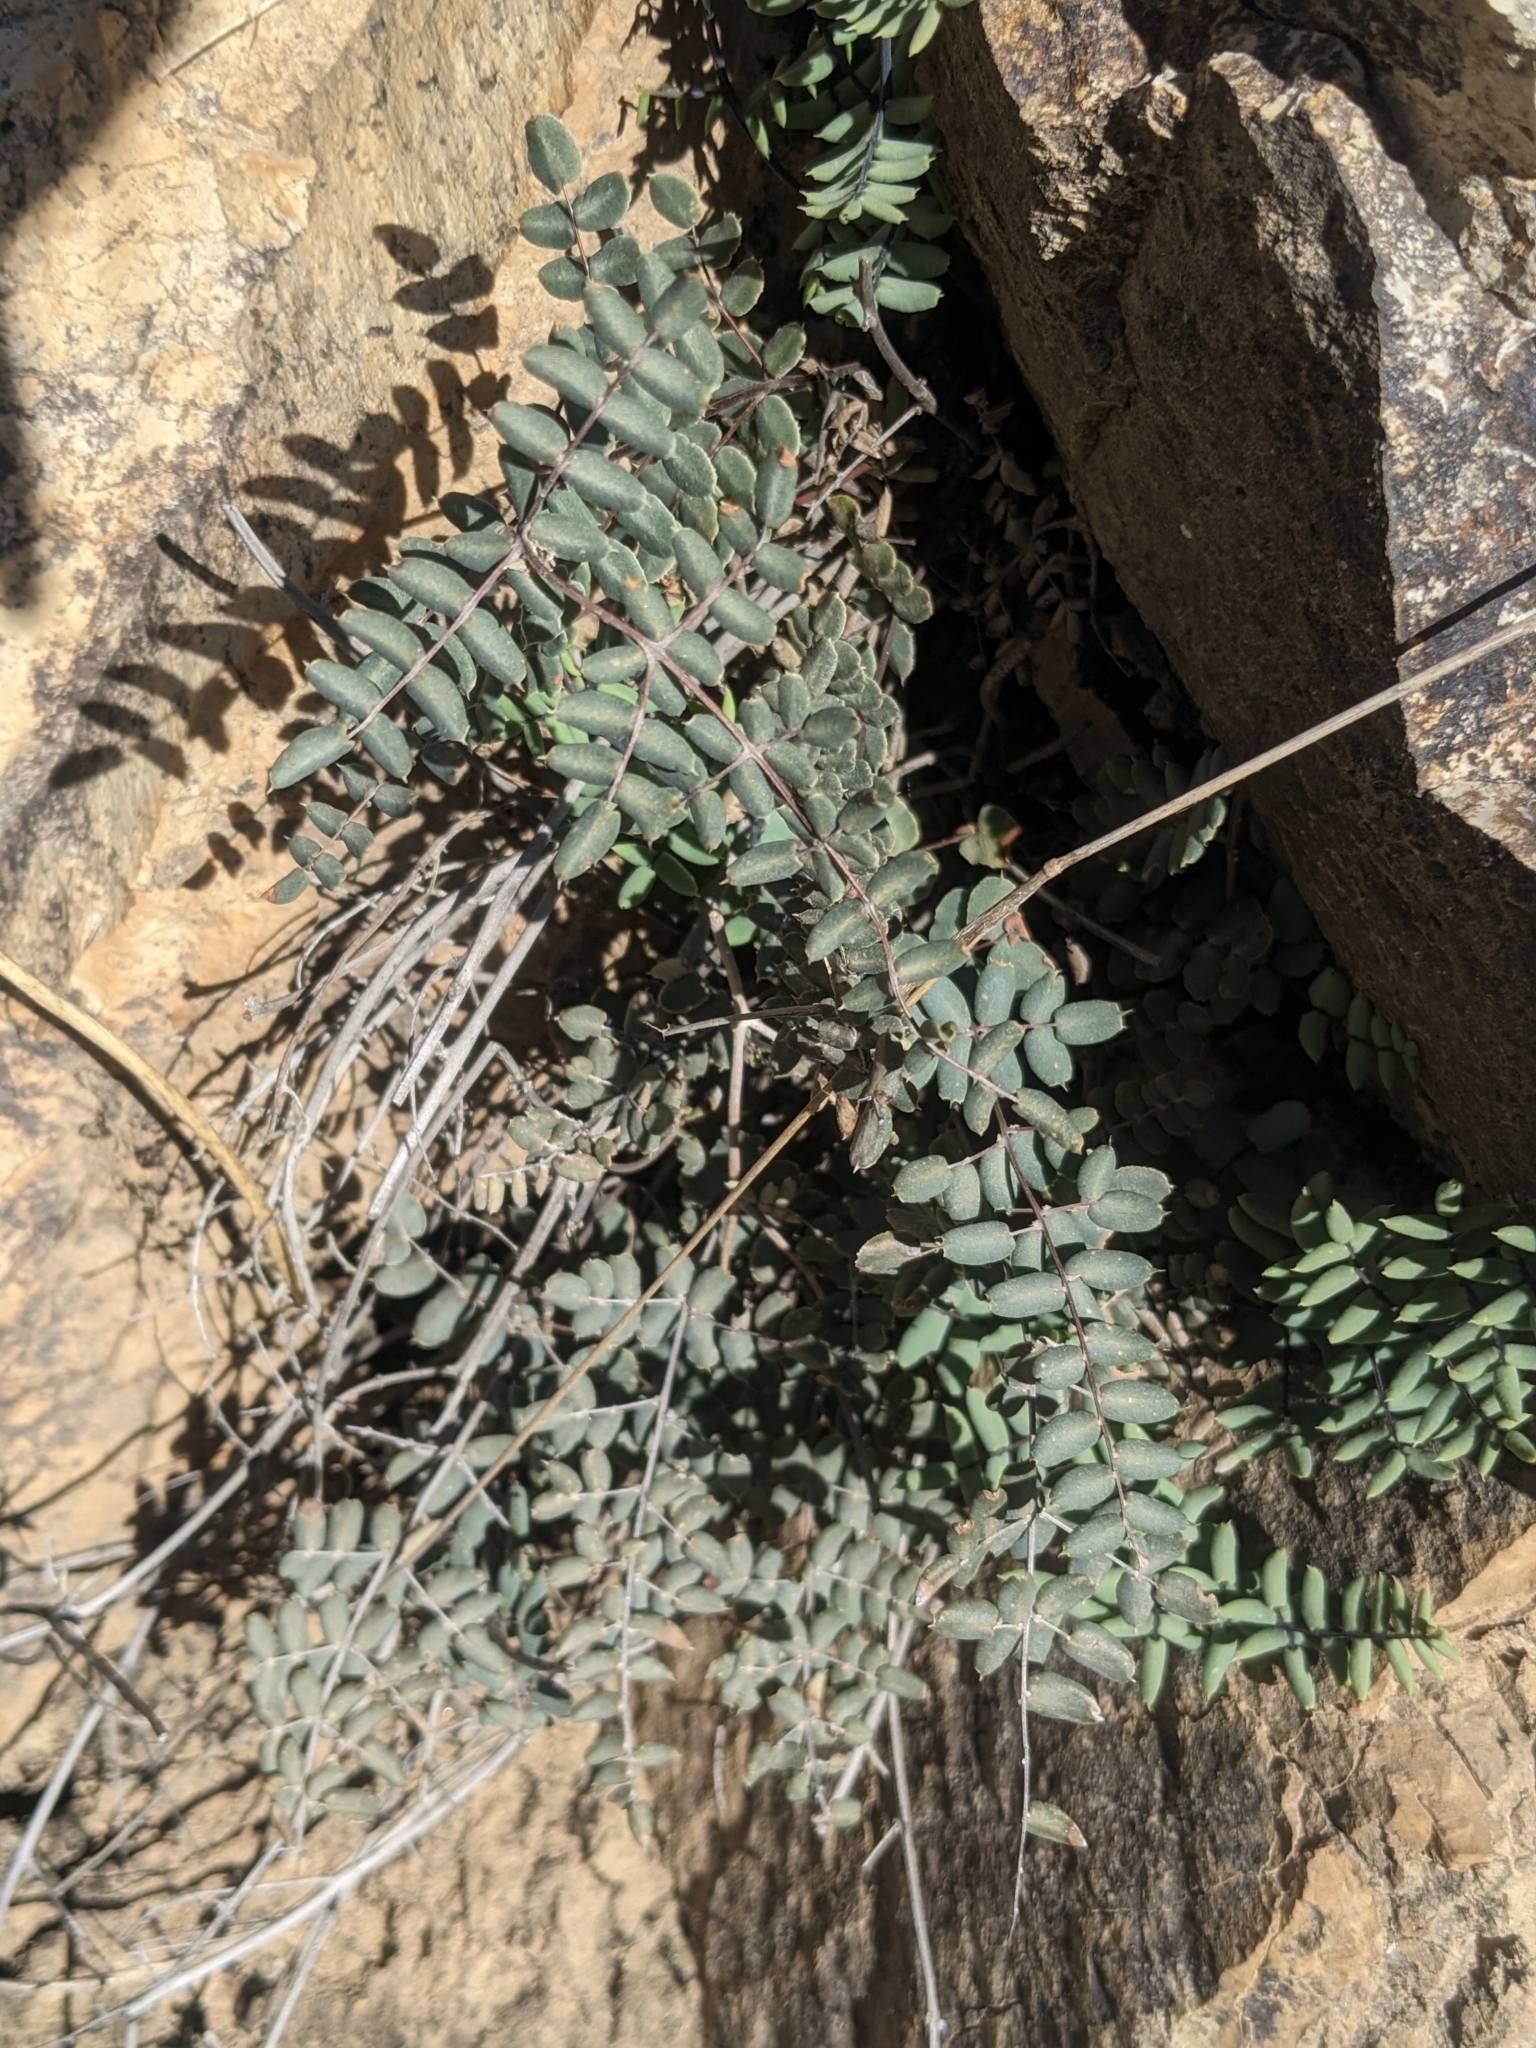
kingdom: Plantae
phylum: Tracheophyta
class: Polypodiopsida
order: Polypodiales
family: Pteridaceae
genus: Pellaea
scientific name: Pellaea truncata
